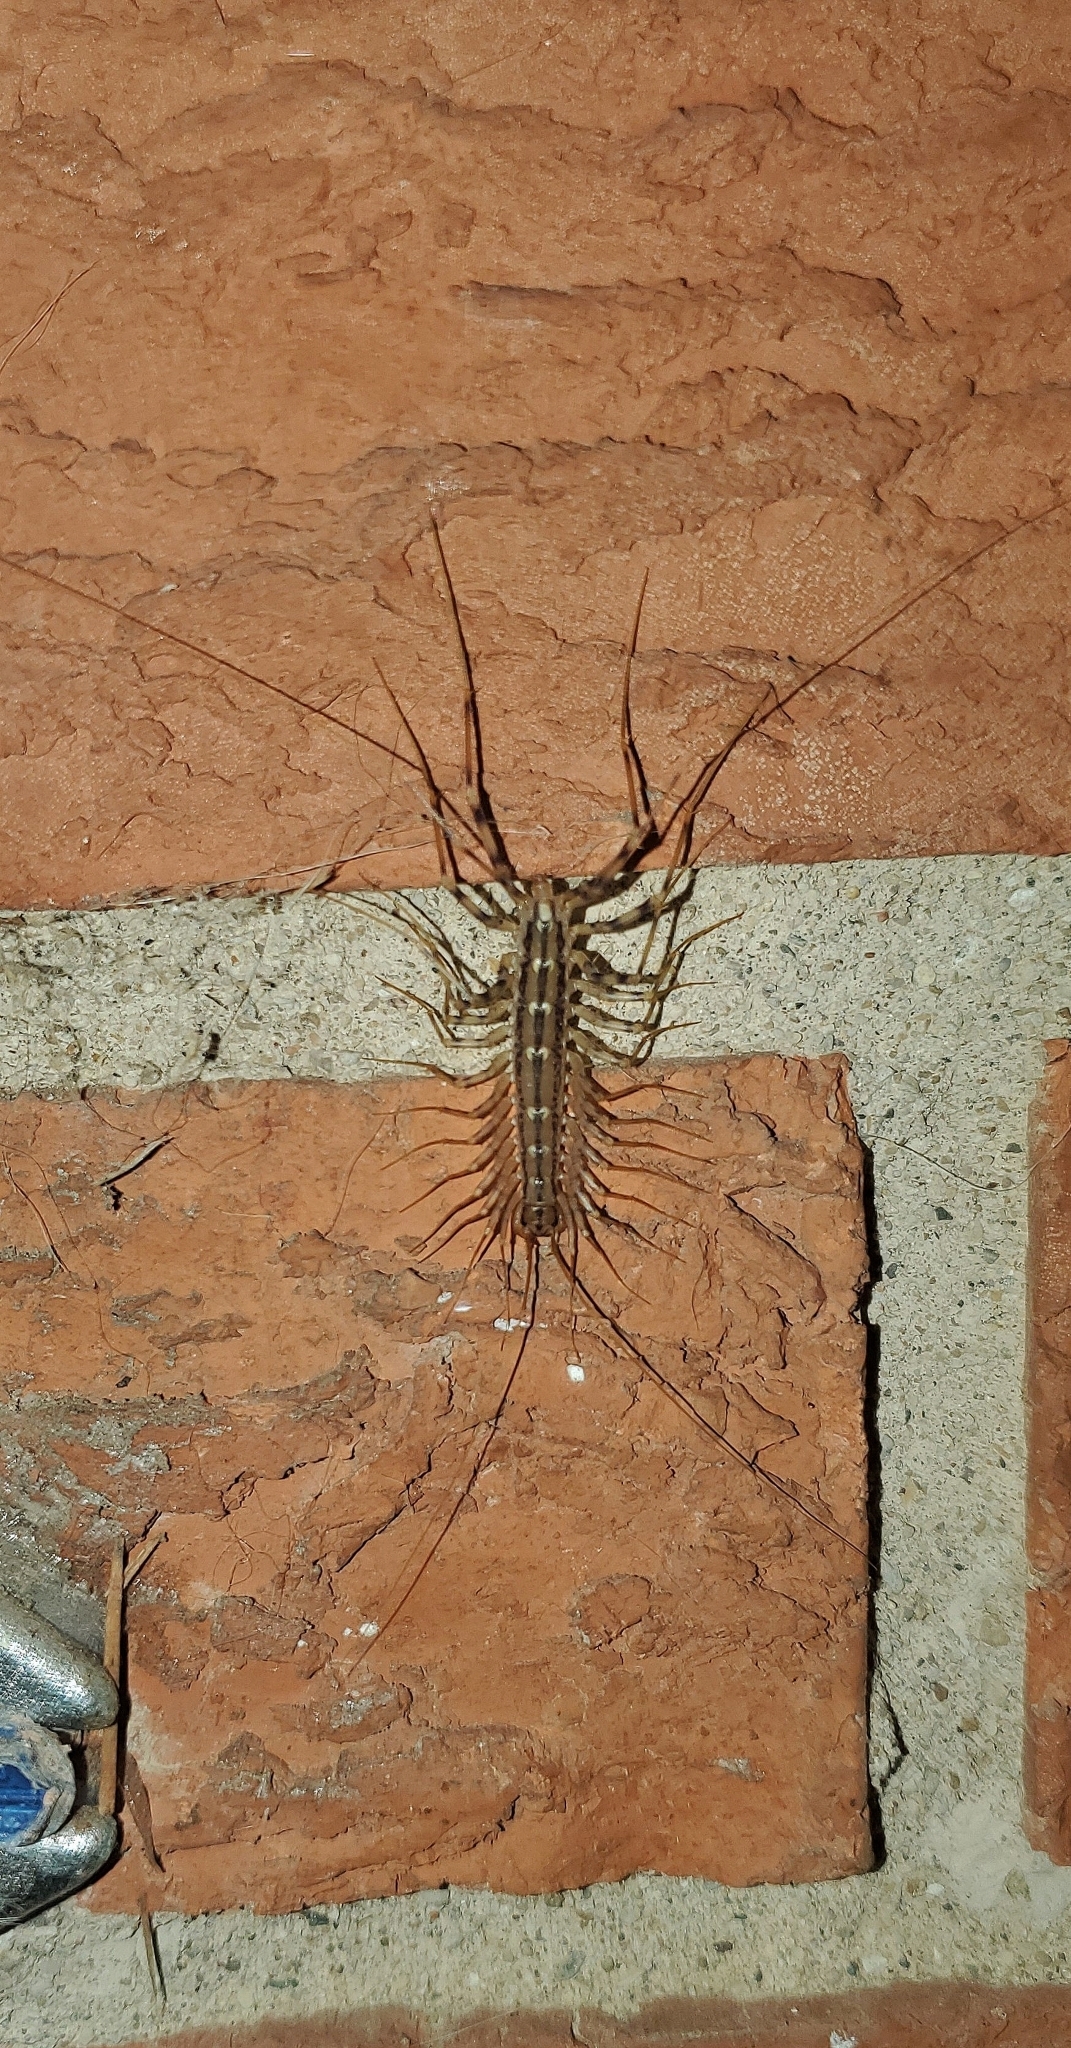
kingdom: Animalia
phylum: Arthropoda
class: Chilopoda
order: Scutigeromorpha
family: Scutigeridae
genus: Scutigera
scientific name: Scutigera coleoptrata
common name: House centipede
